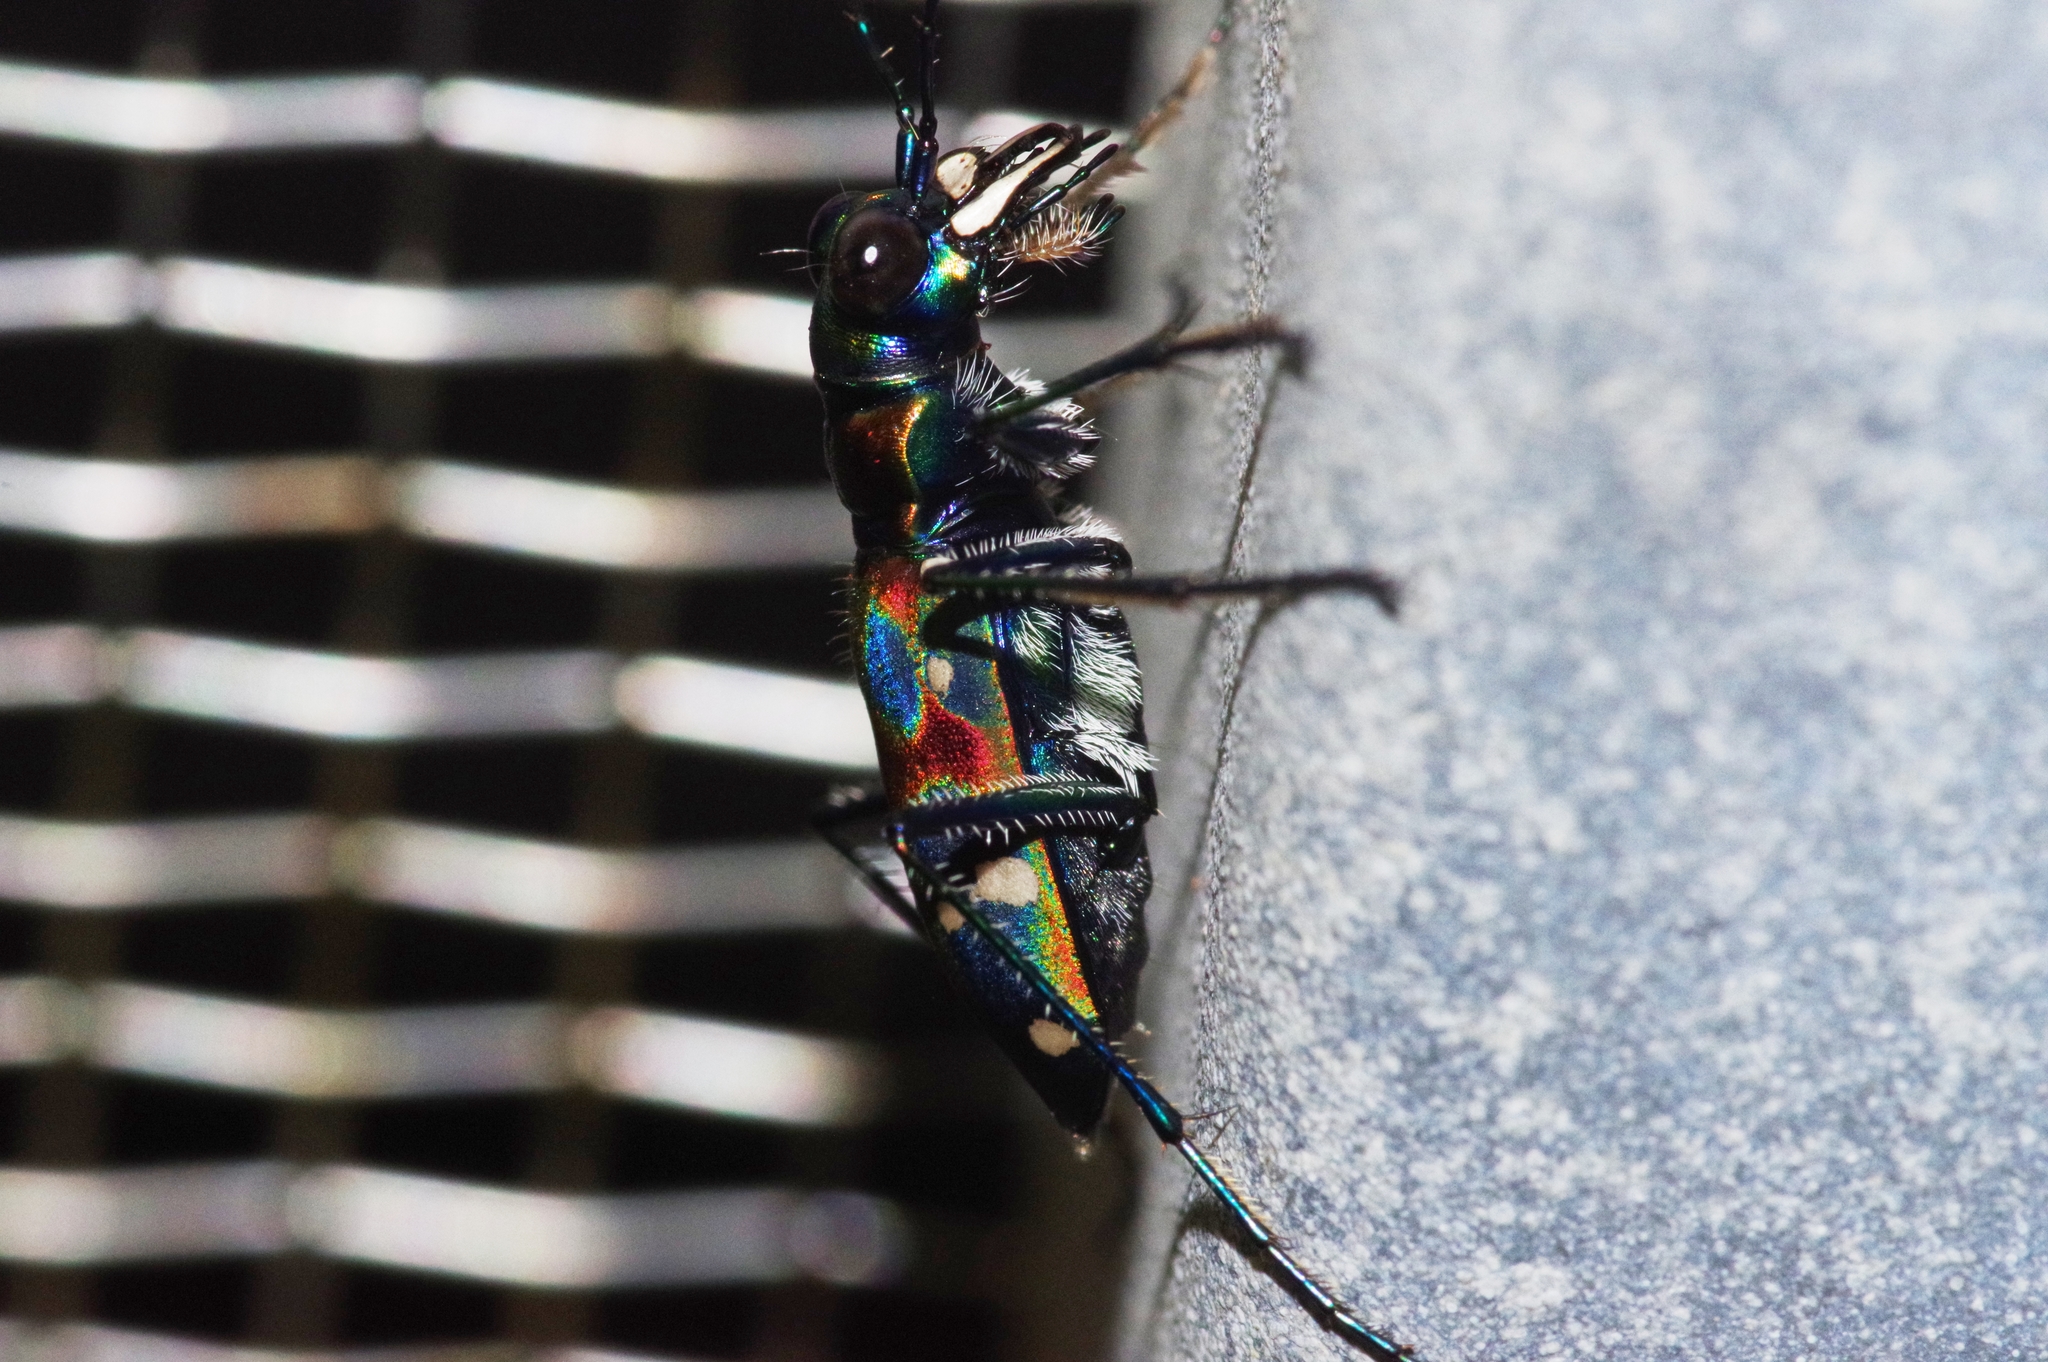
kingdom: Animalia
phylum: Arthropoda
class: Insecta
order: Coleoptera
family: Carabidae
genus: Cicindela
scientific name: Cicindela chinensis
